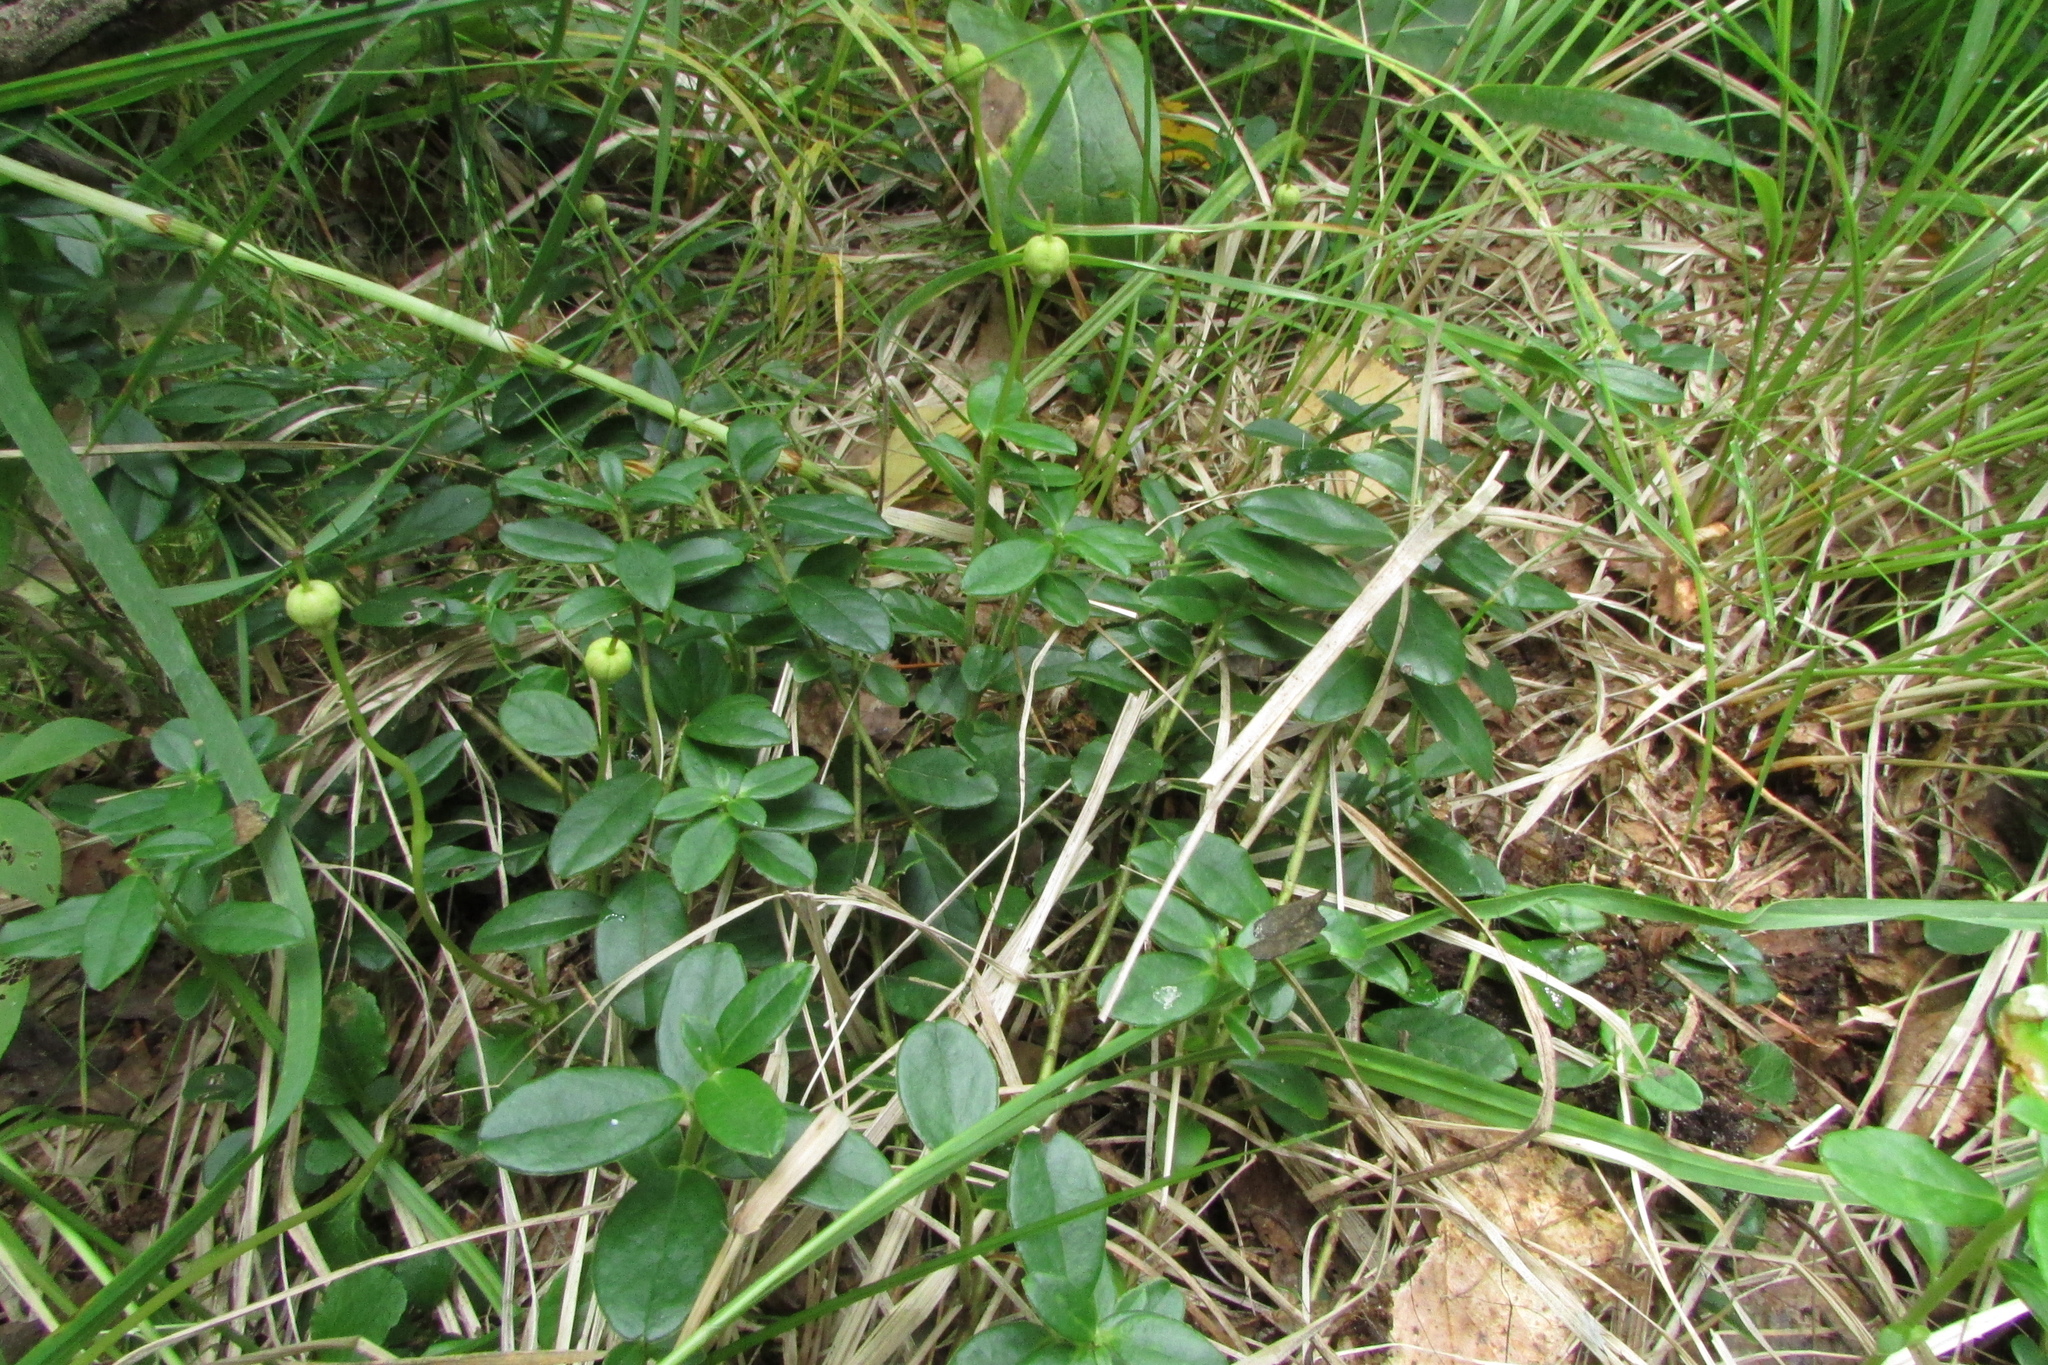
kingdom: Plantae
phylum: Tracheophyta
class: Magnoliopsida
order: Ericales
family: Ericaceae
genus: Moneses
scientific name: Moneses uniflora
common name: One-flowered wintergreen
